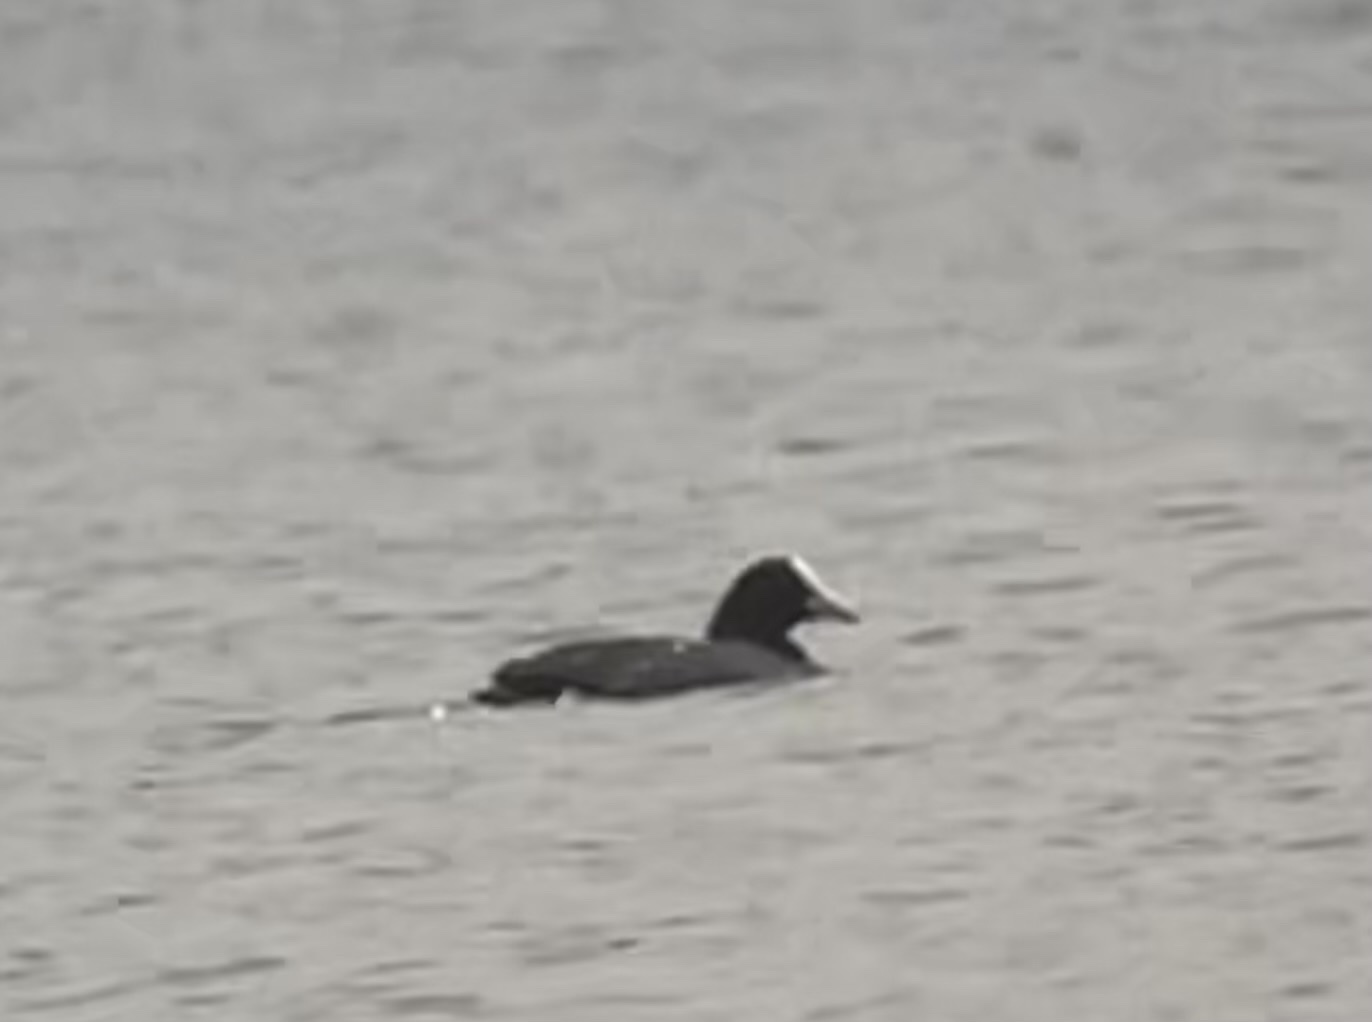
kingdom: Animalia
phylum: Chordata
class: Aves
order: Gruiformes
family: Rallidae
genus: Fulica
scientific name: Fulica atra
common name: Eurasian coot
